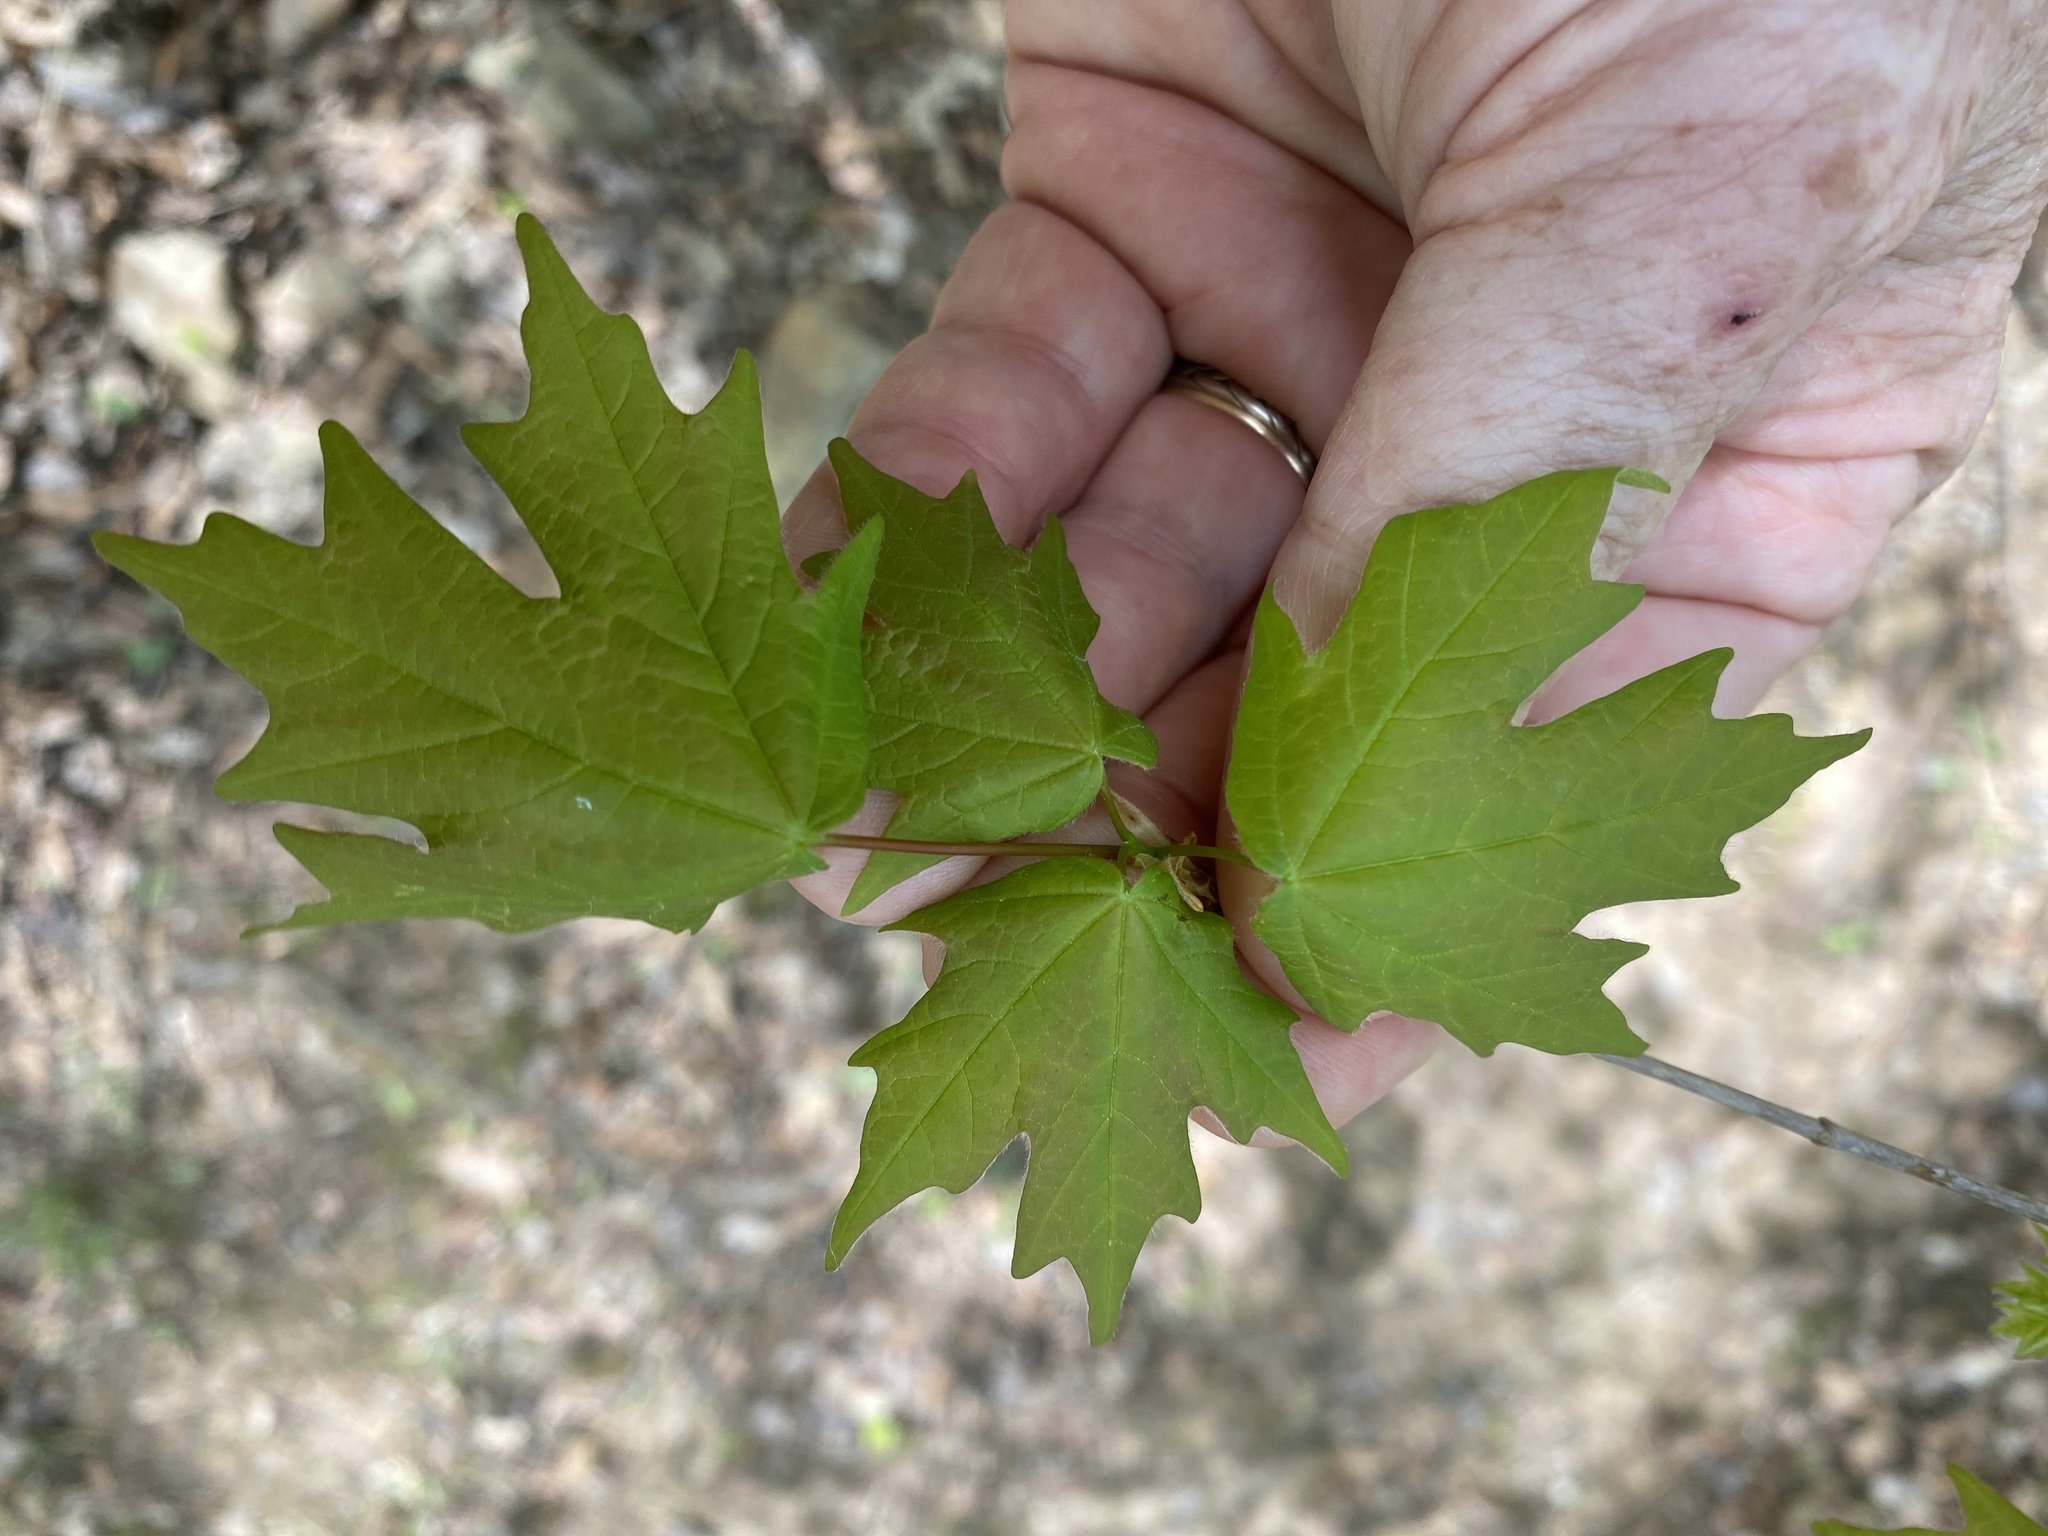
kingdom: Plantae
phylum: Tracheophyta
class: Magnoliopsida
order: Sapindales
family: Sapindaceae
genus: Acer
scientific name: Acer floridanum
